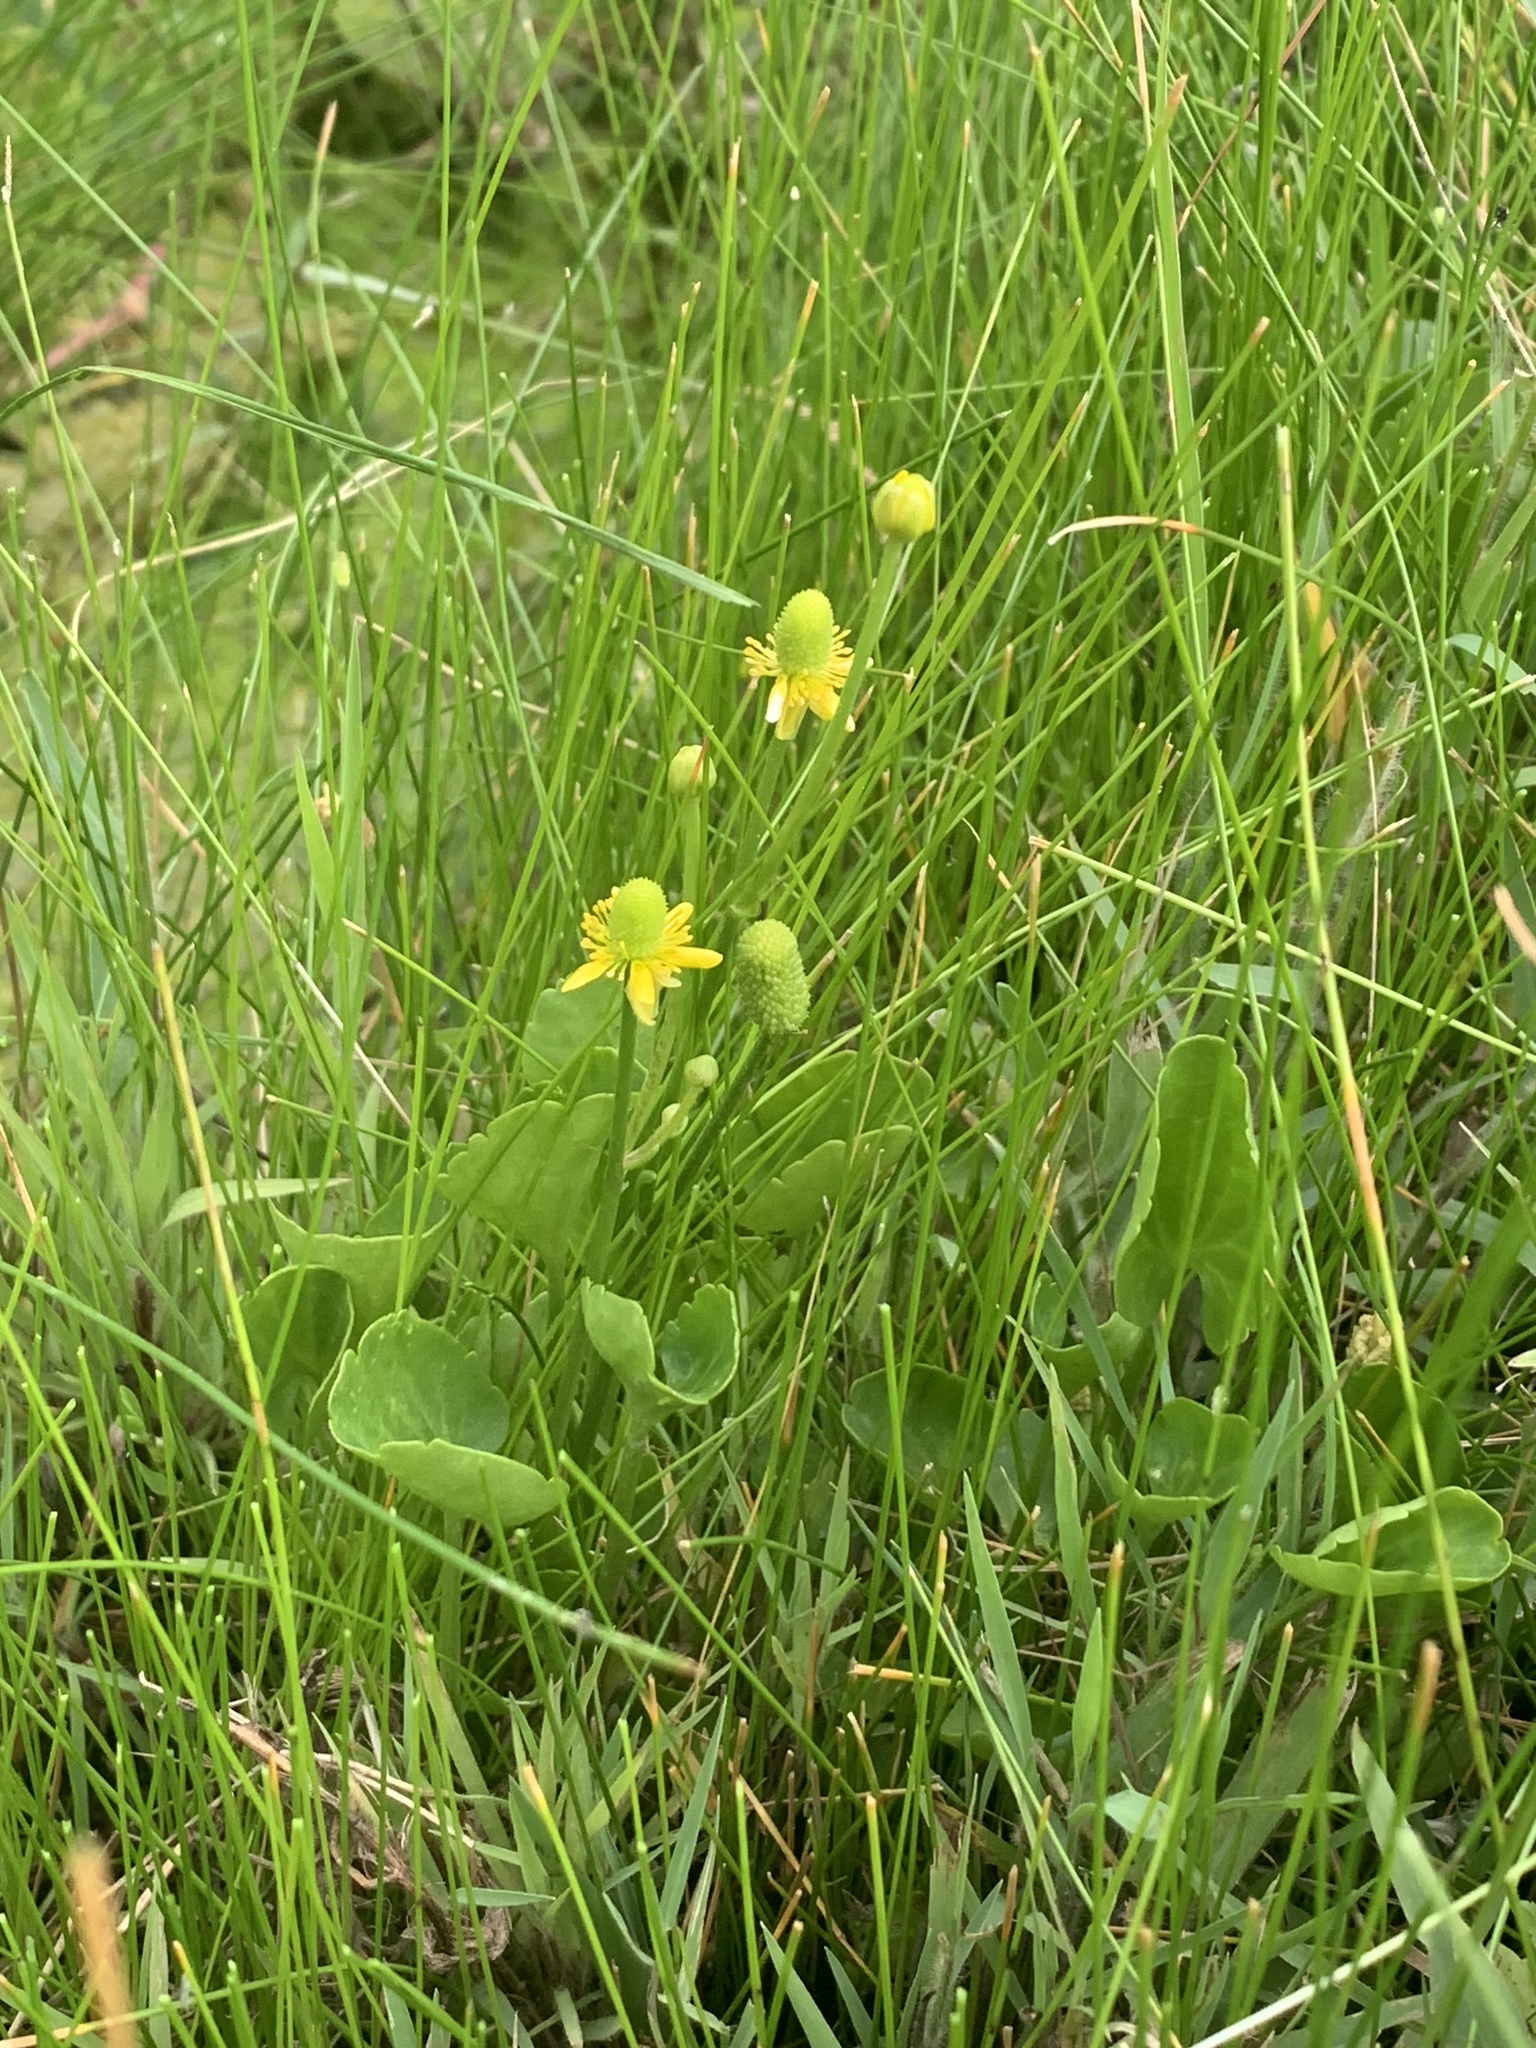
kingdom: Plantae
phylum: Tracheophyta
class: Magnoliopsida
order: Ranunculales
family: Ranunculaceae
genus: Halerpestes
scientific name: Halerpestes cymbalaria
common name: Seaside crowfoot
